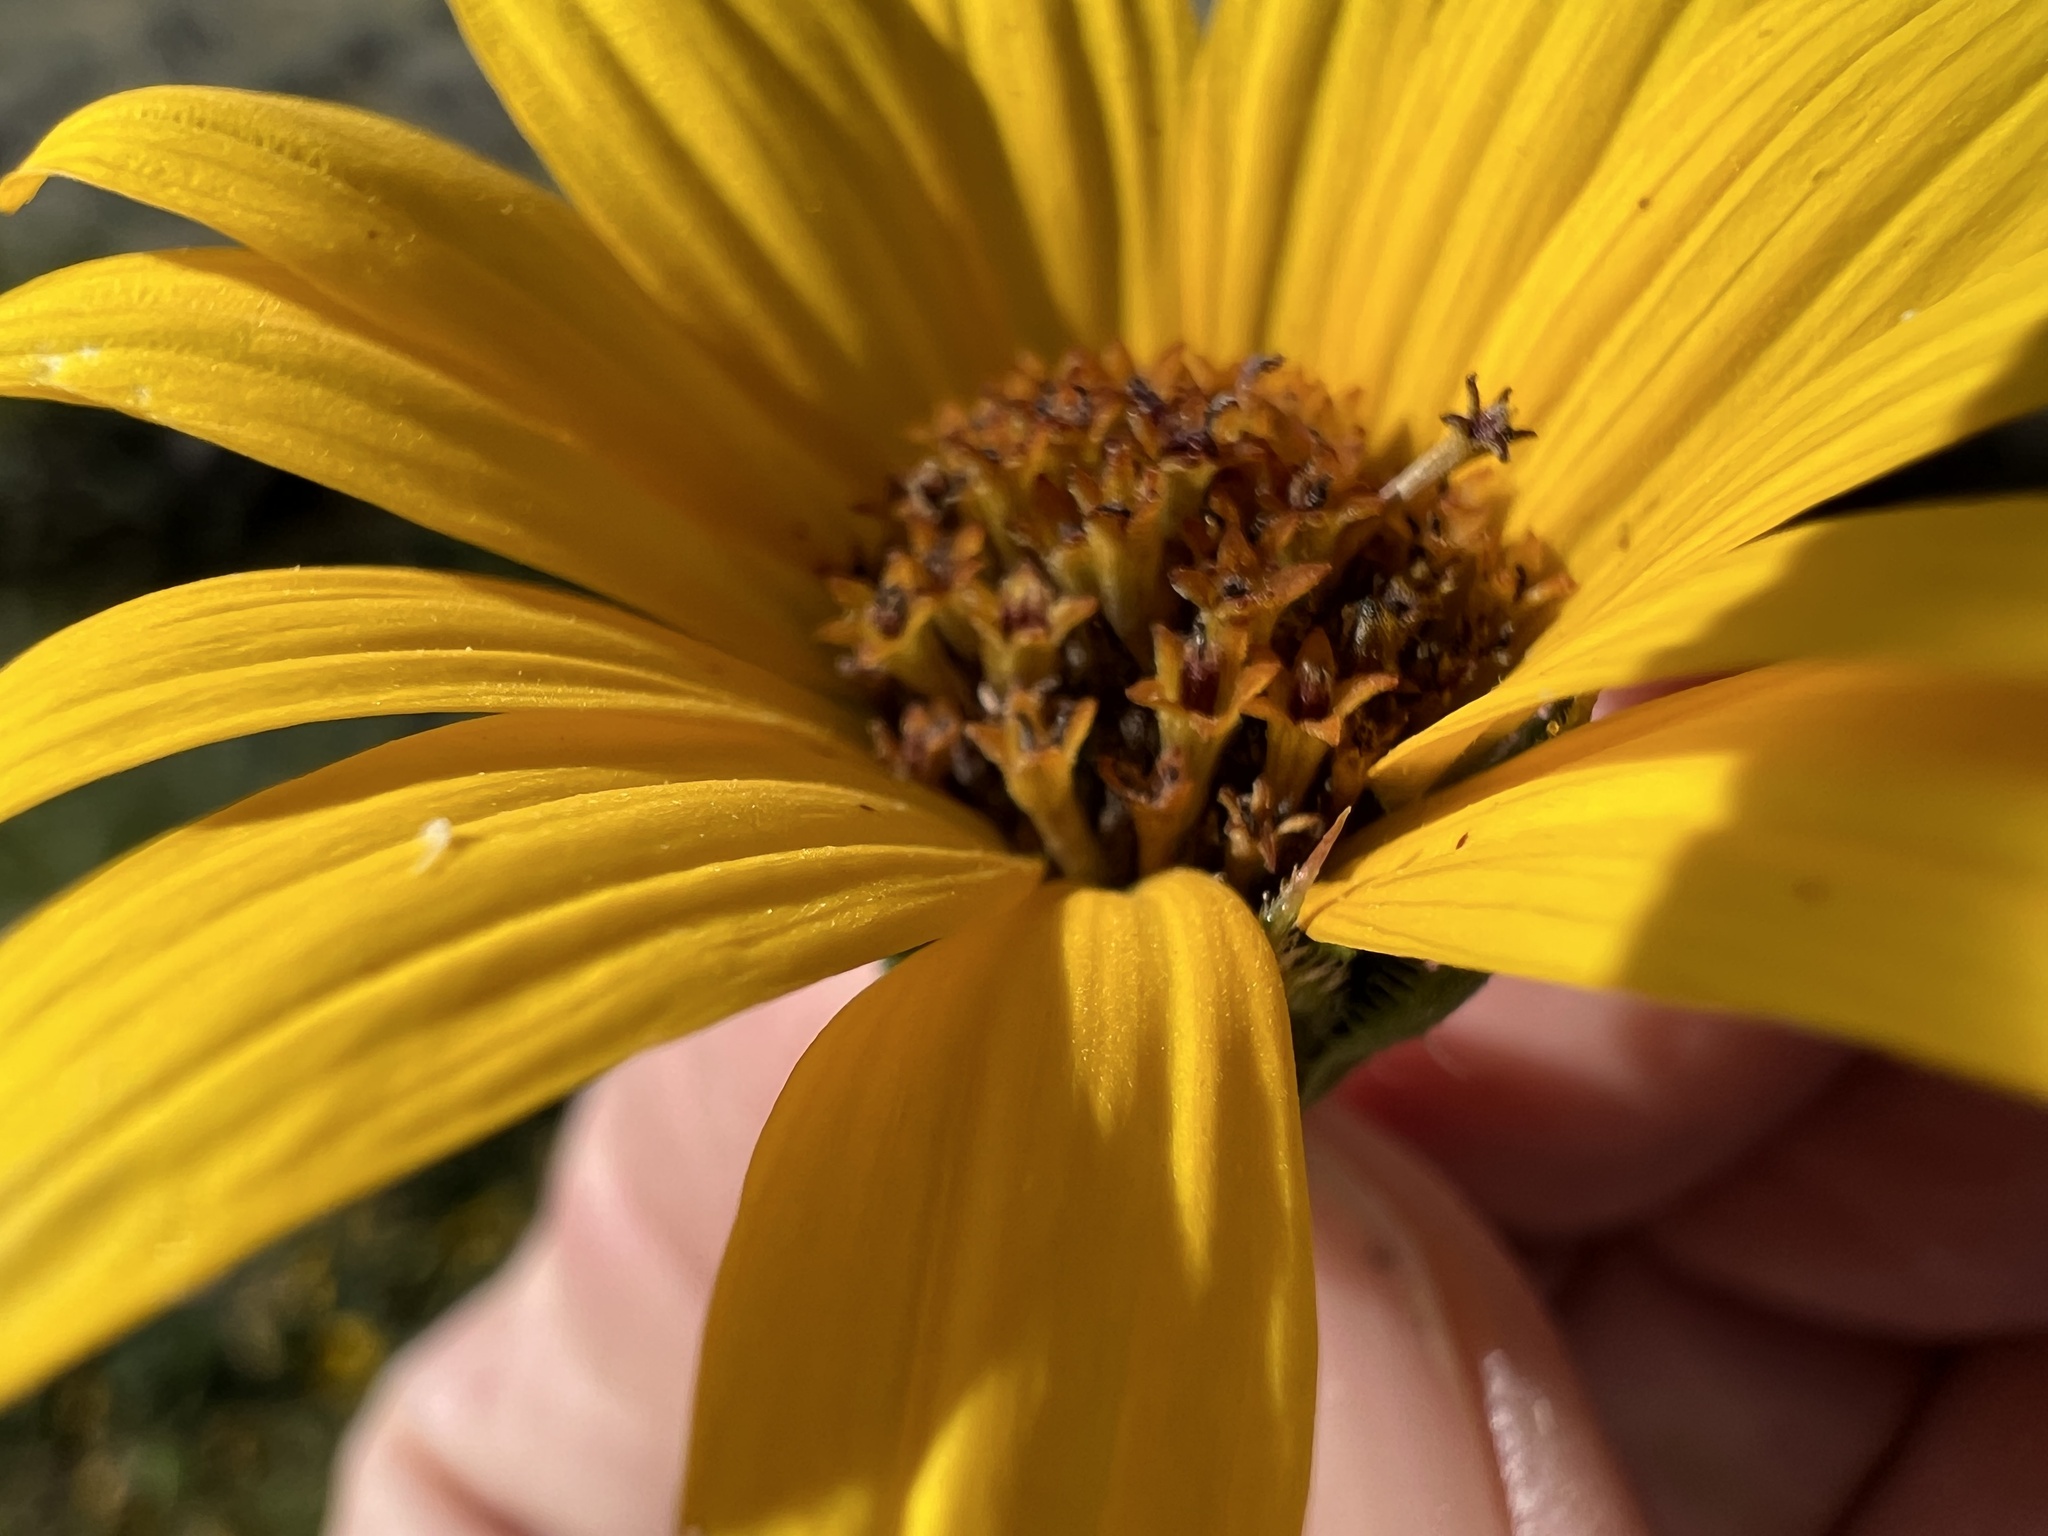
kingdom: Plantae
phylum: Tracheophyta
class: Magnoliopsida
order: Asterales
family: Asteraceae
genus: Helianthus
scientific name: Helianthus annuus
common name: Sunflower
